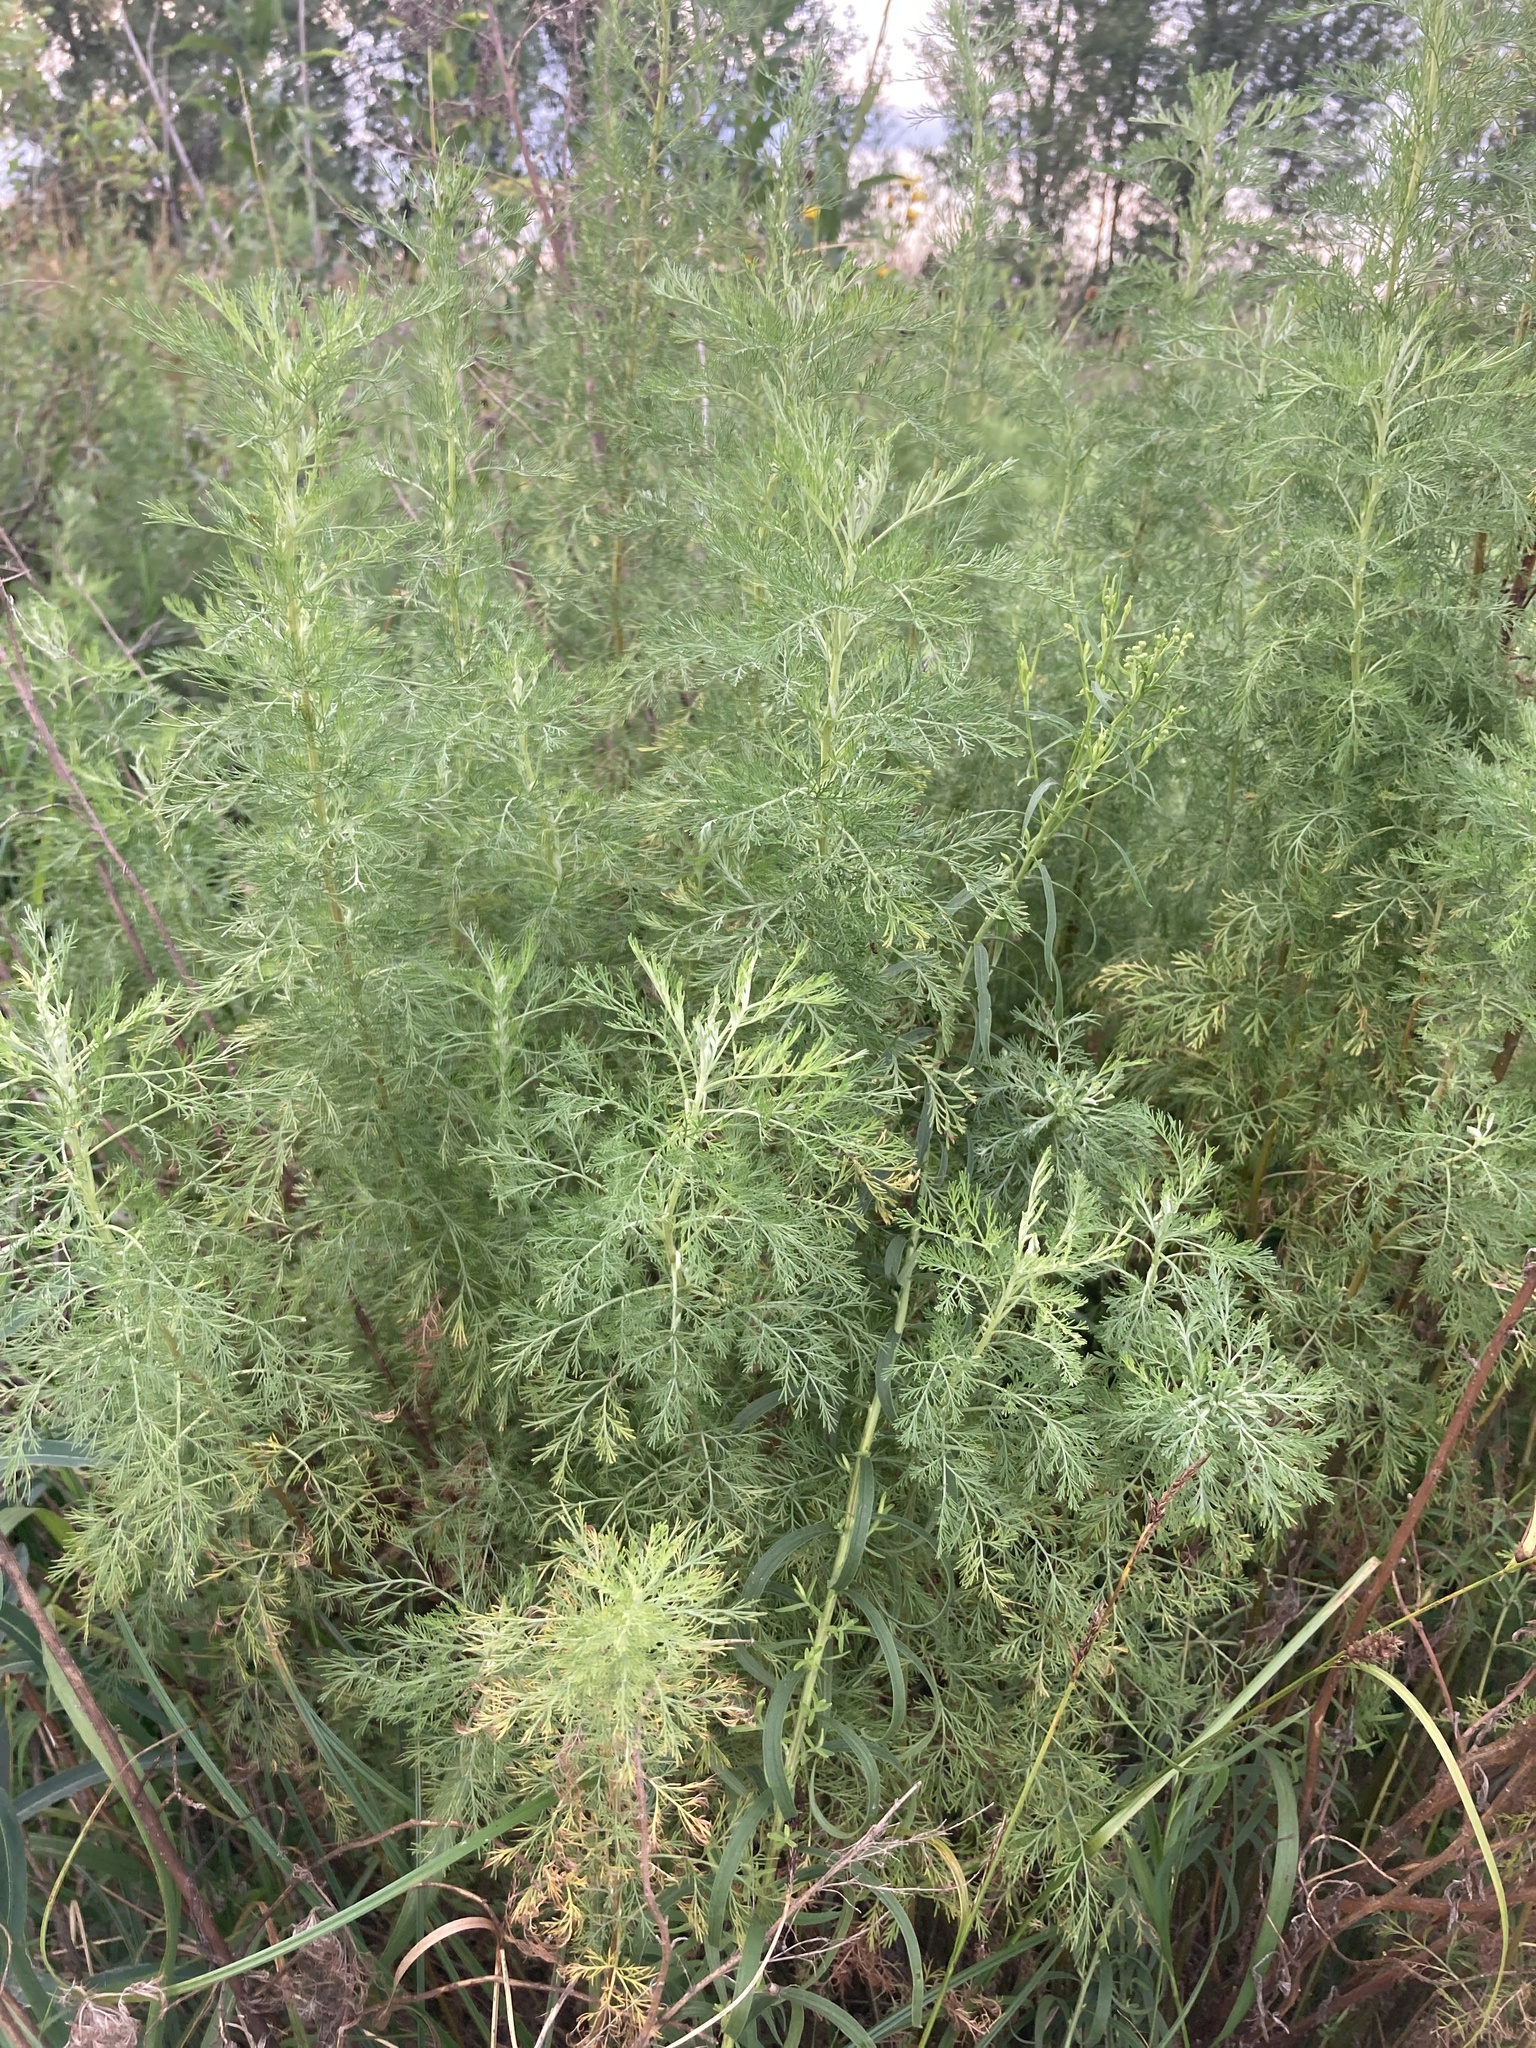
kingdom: Plantae
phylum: Tracheophyta
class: Magnoliopsida
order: Asterales
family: Asteraceae
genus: Artemisia
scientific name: Artemisia abrotanum
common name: Southernwood
